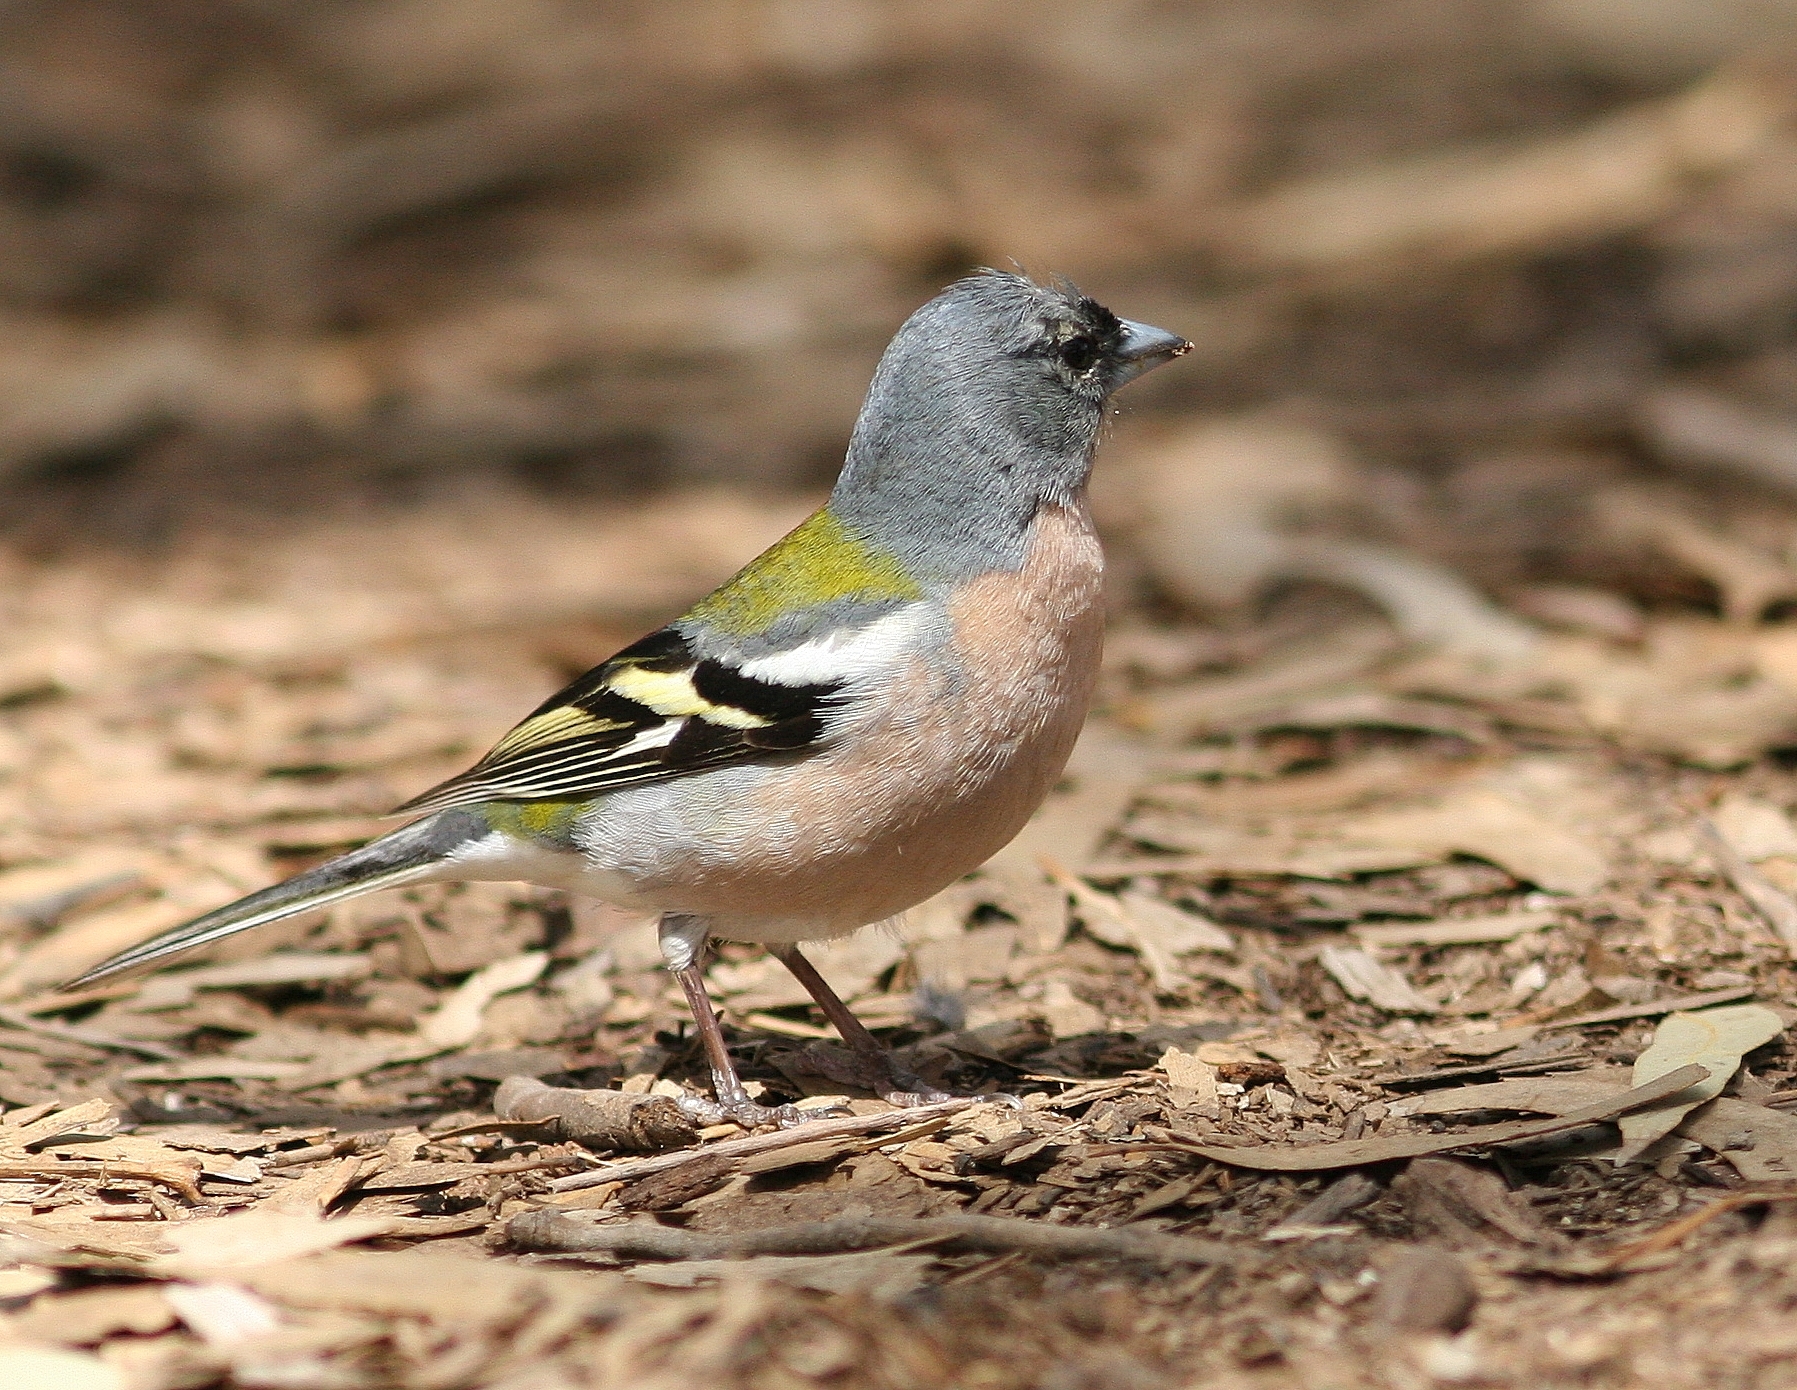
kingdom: Animalia
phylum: Chordata
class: Aves
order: Passeriformes
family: Fringillidae
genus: Fringilla
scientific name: Fringilla spodiogenys
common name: African chaffinch
